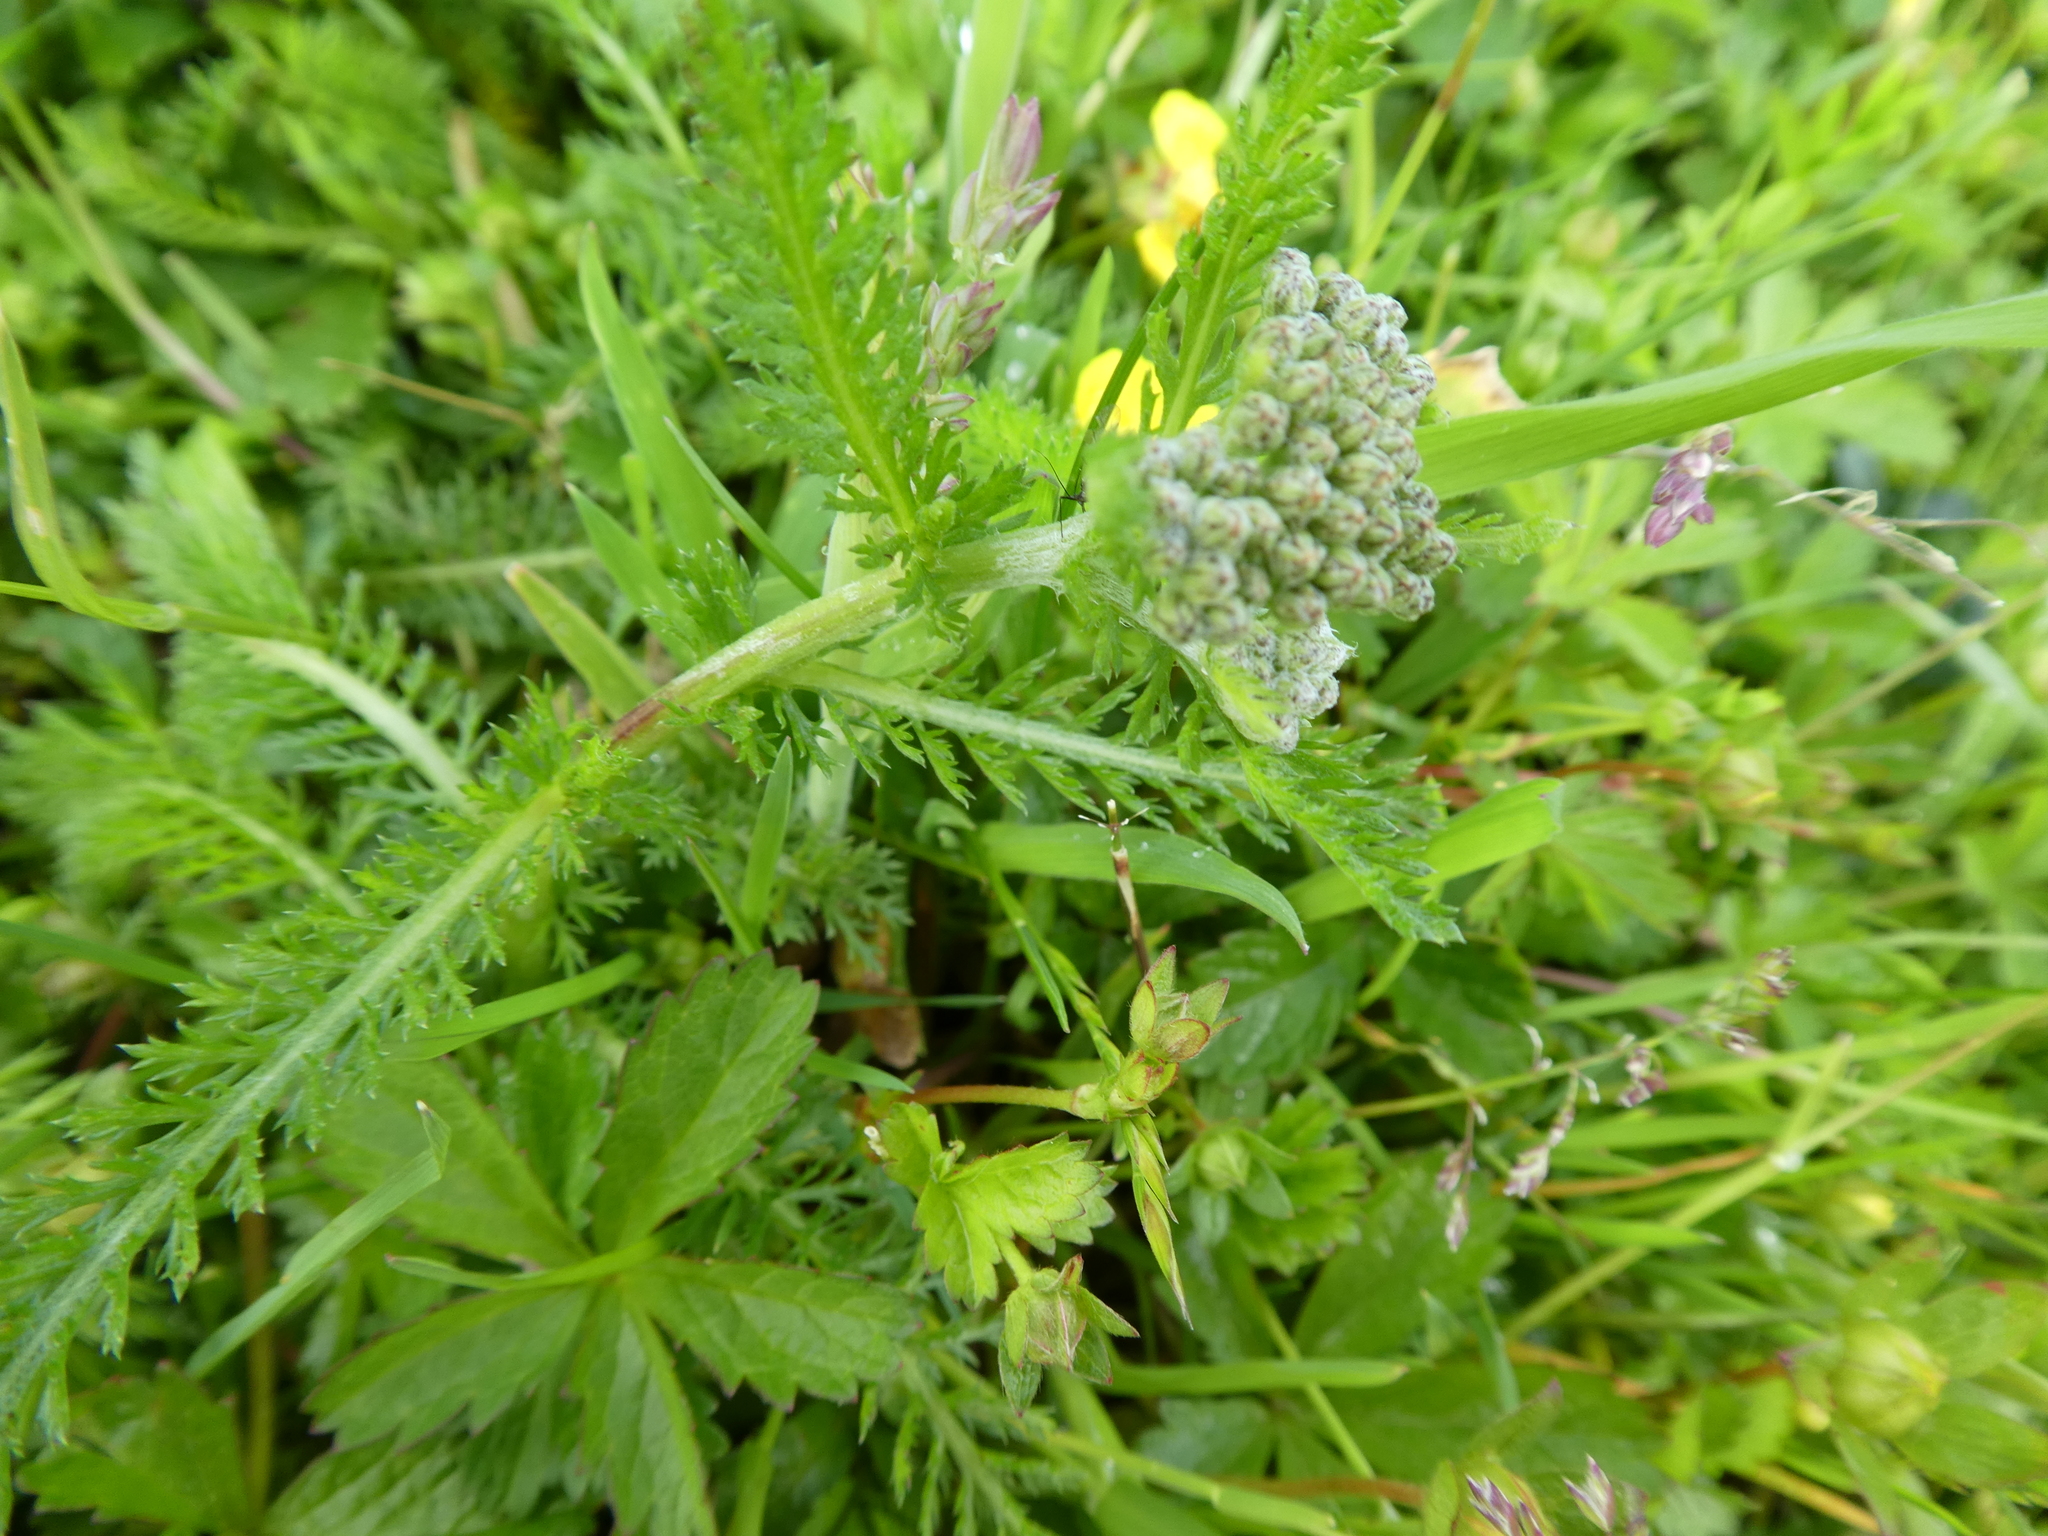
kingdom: Plantae
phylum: Tracheophyta
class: Magnoliopsida
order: Asterales
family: Asteraceae
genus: Achillea
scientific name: Achillea millefolium
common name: Yarrow
